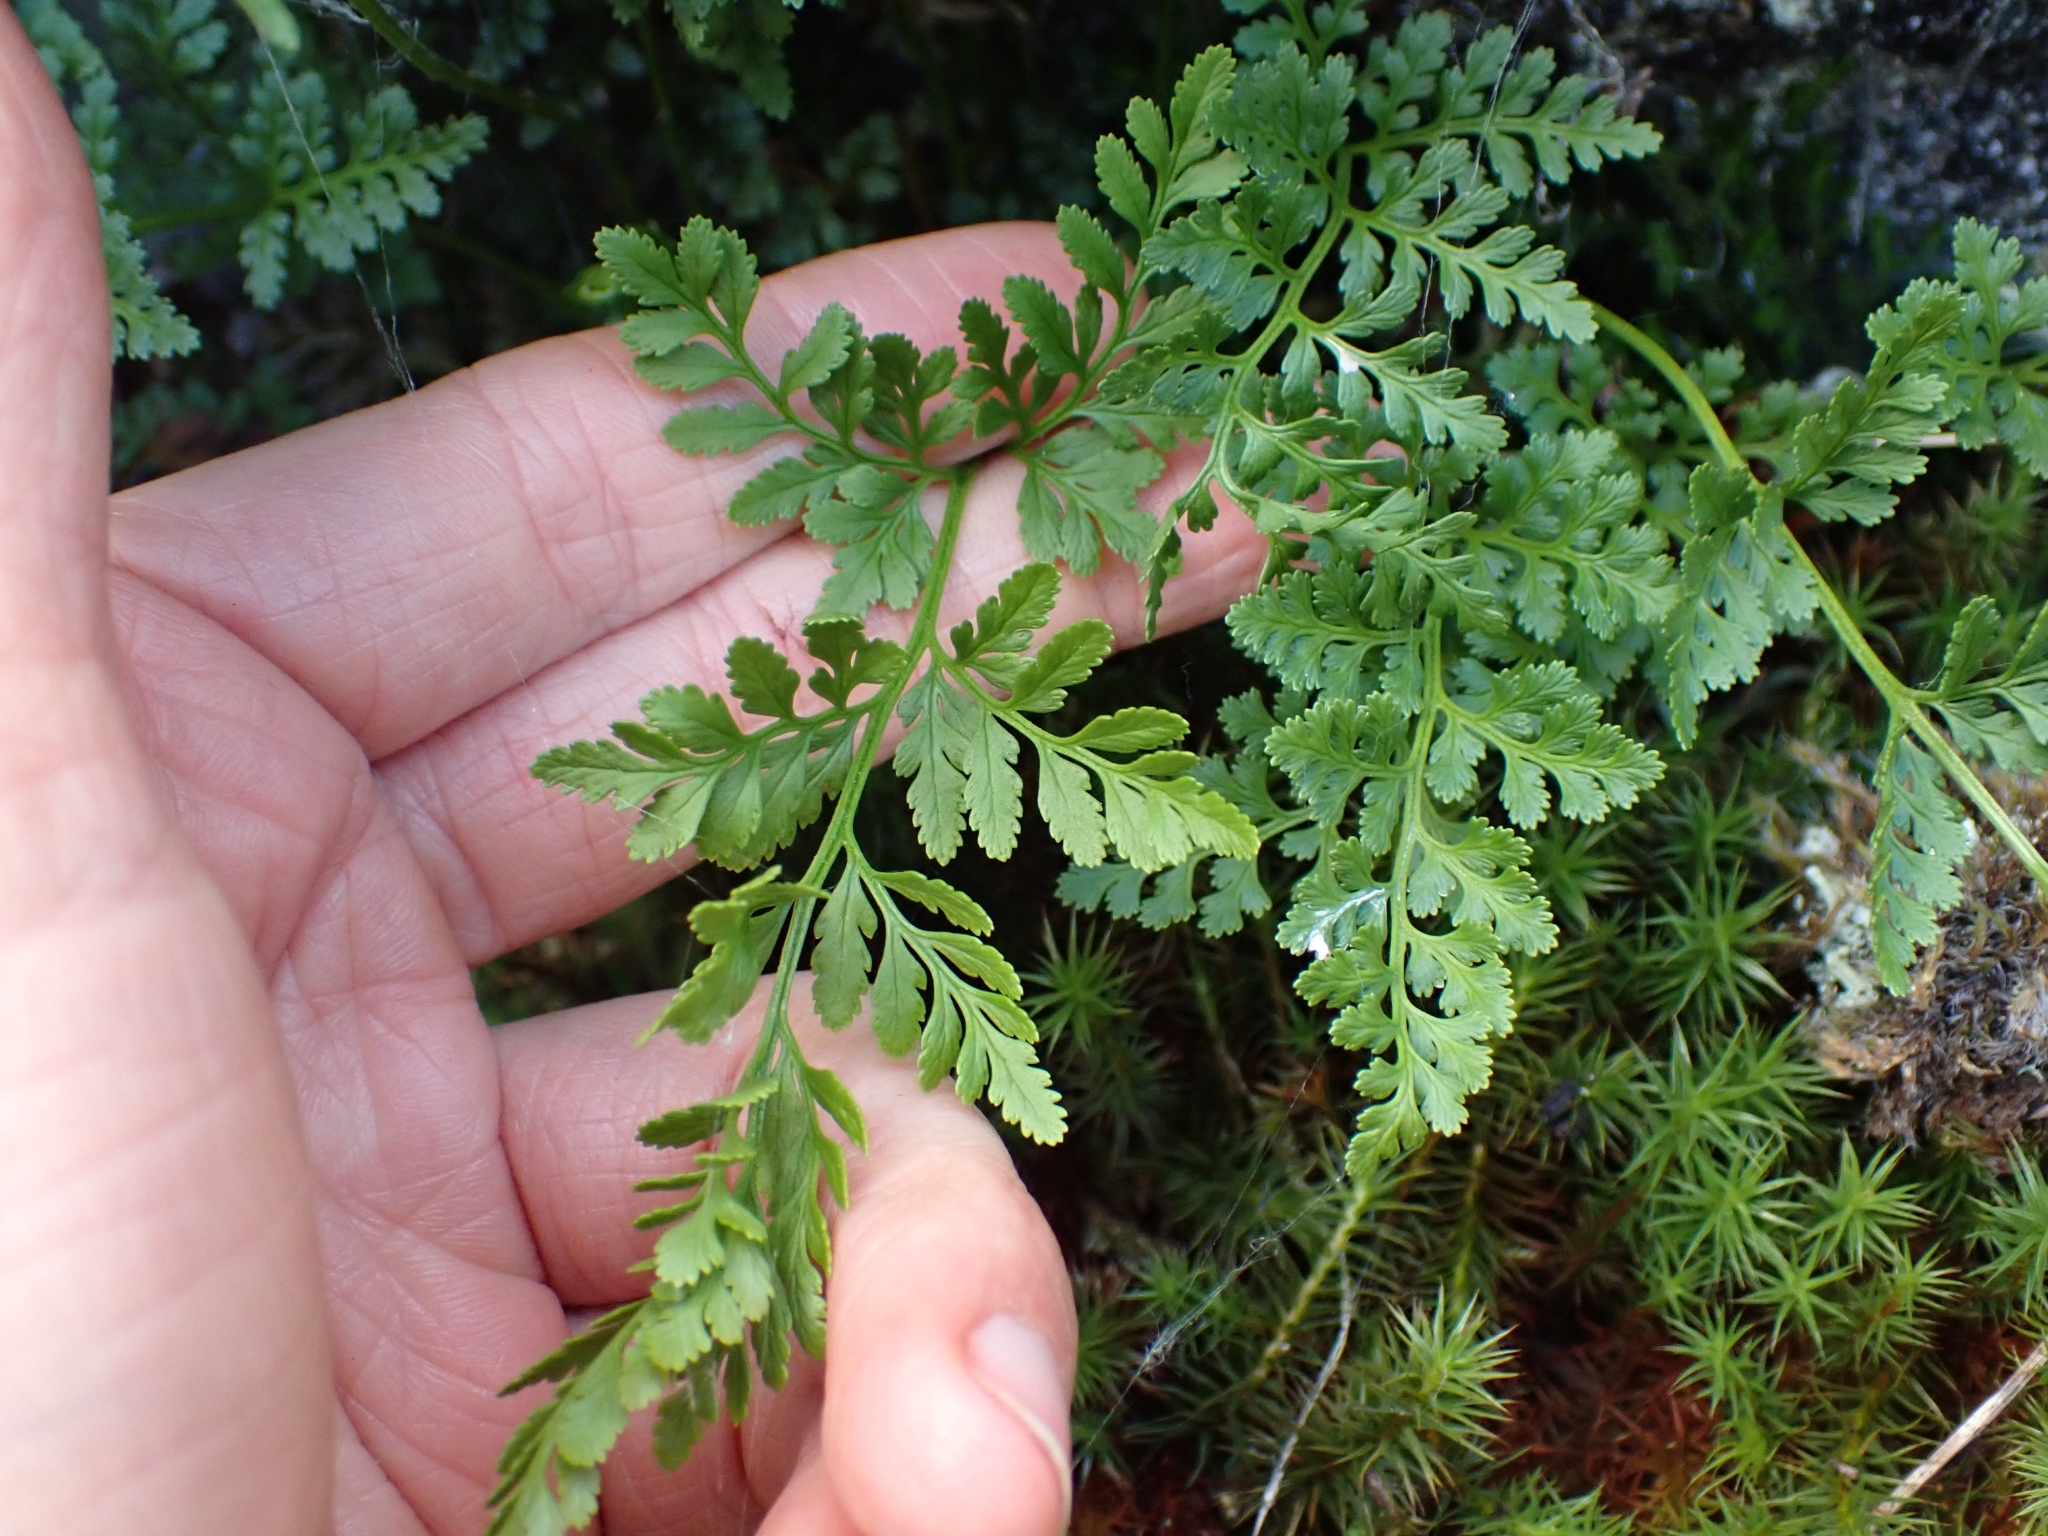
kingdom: Plantae
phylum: Tracheophyta
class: Polypodiopsida
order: Polypodiales
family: Pteridaceae
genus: Cryptogramma
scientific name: Cryptogramma acrostichoides
